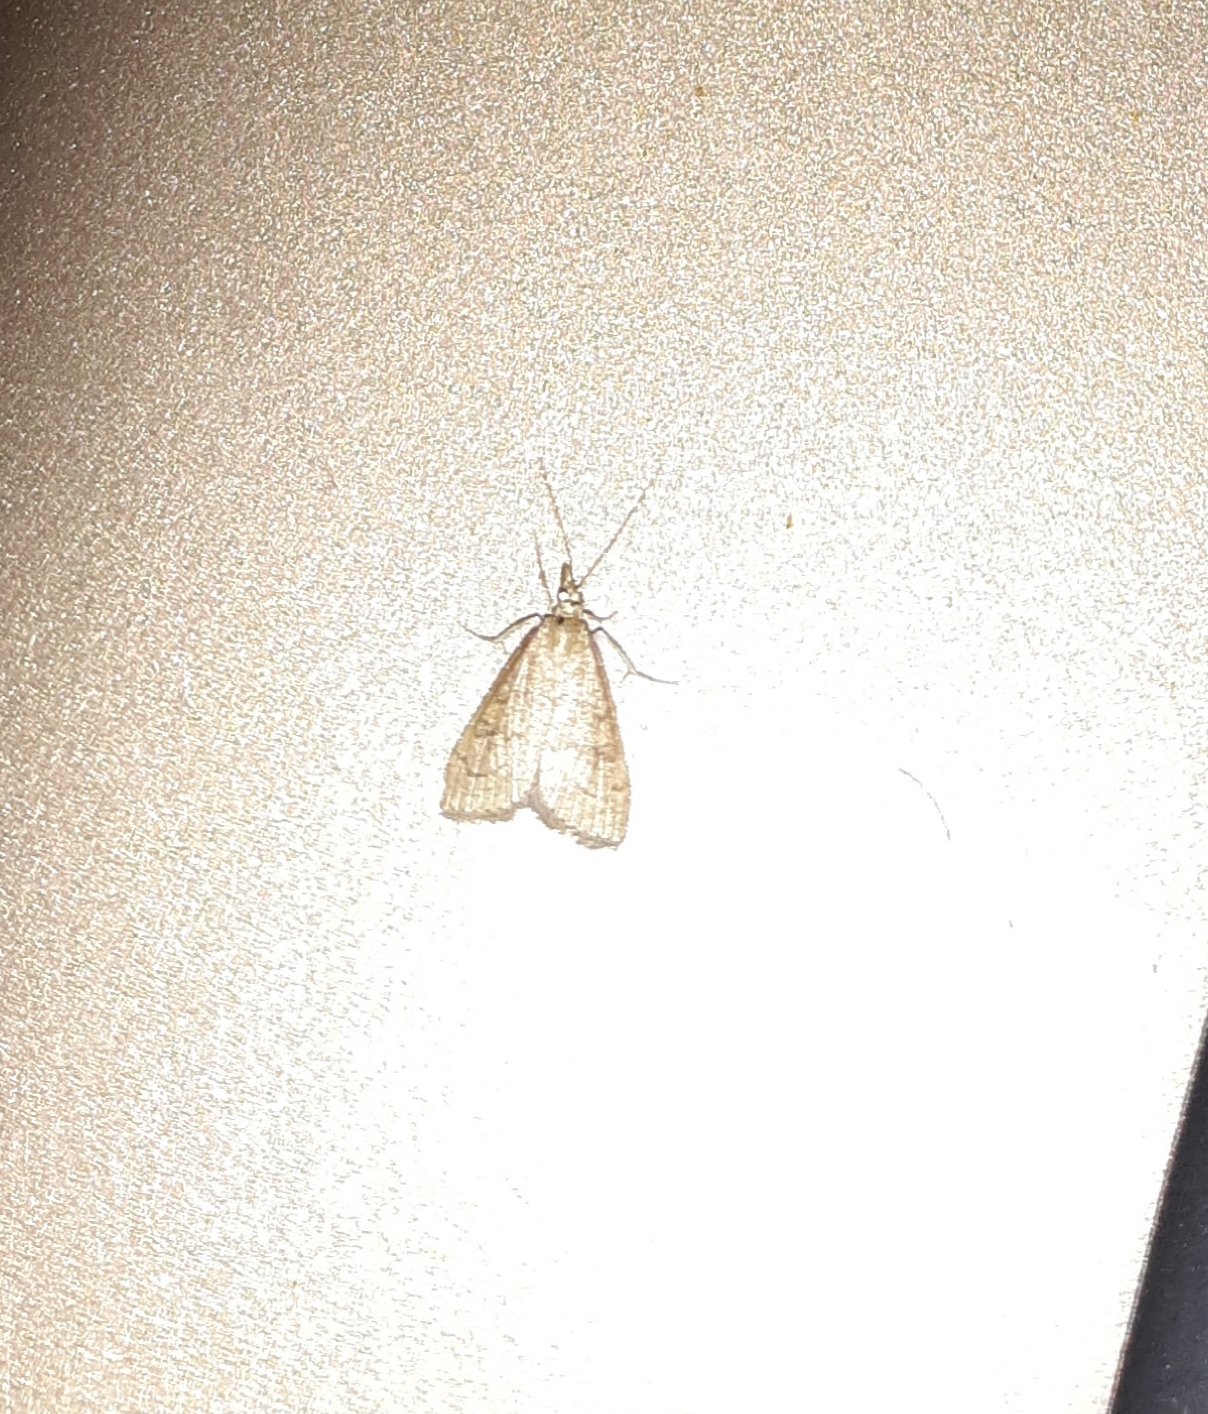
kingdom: Animalia
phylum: Arthropoda
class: Insecta
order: Lepidoptera
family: Crambidae
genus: Udea
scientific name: Udea rubigalis
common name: Celery leaftier moth
